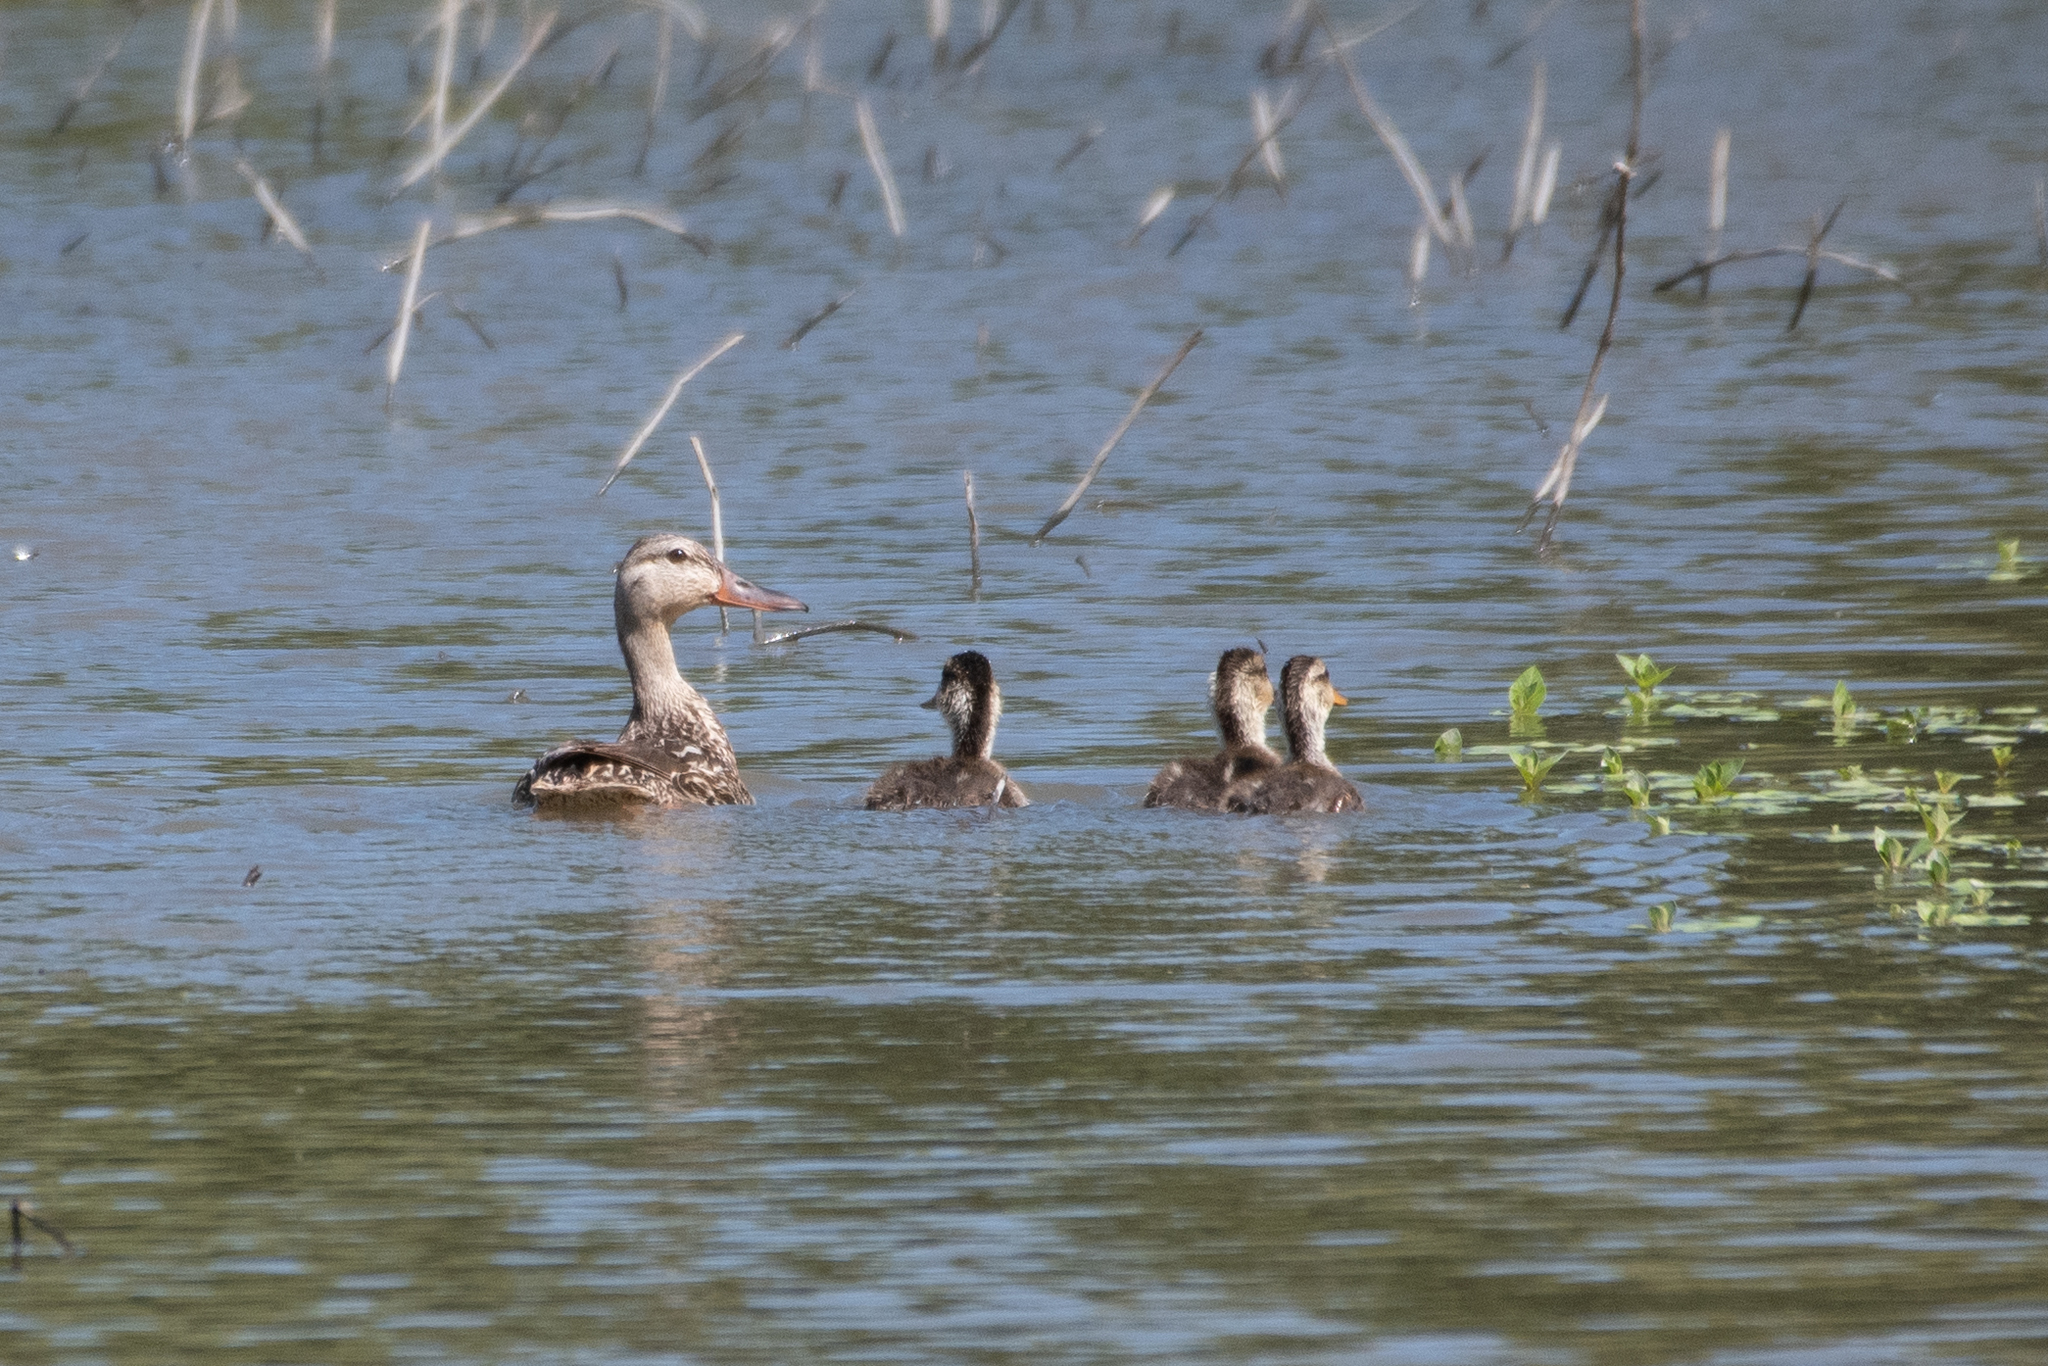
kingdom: Animalia
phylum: Chordata
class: Aves
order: Anseriformes
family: Anatidae
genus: Anas
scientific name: Anas platyrhynchos
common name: Mallard
